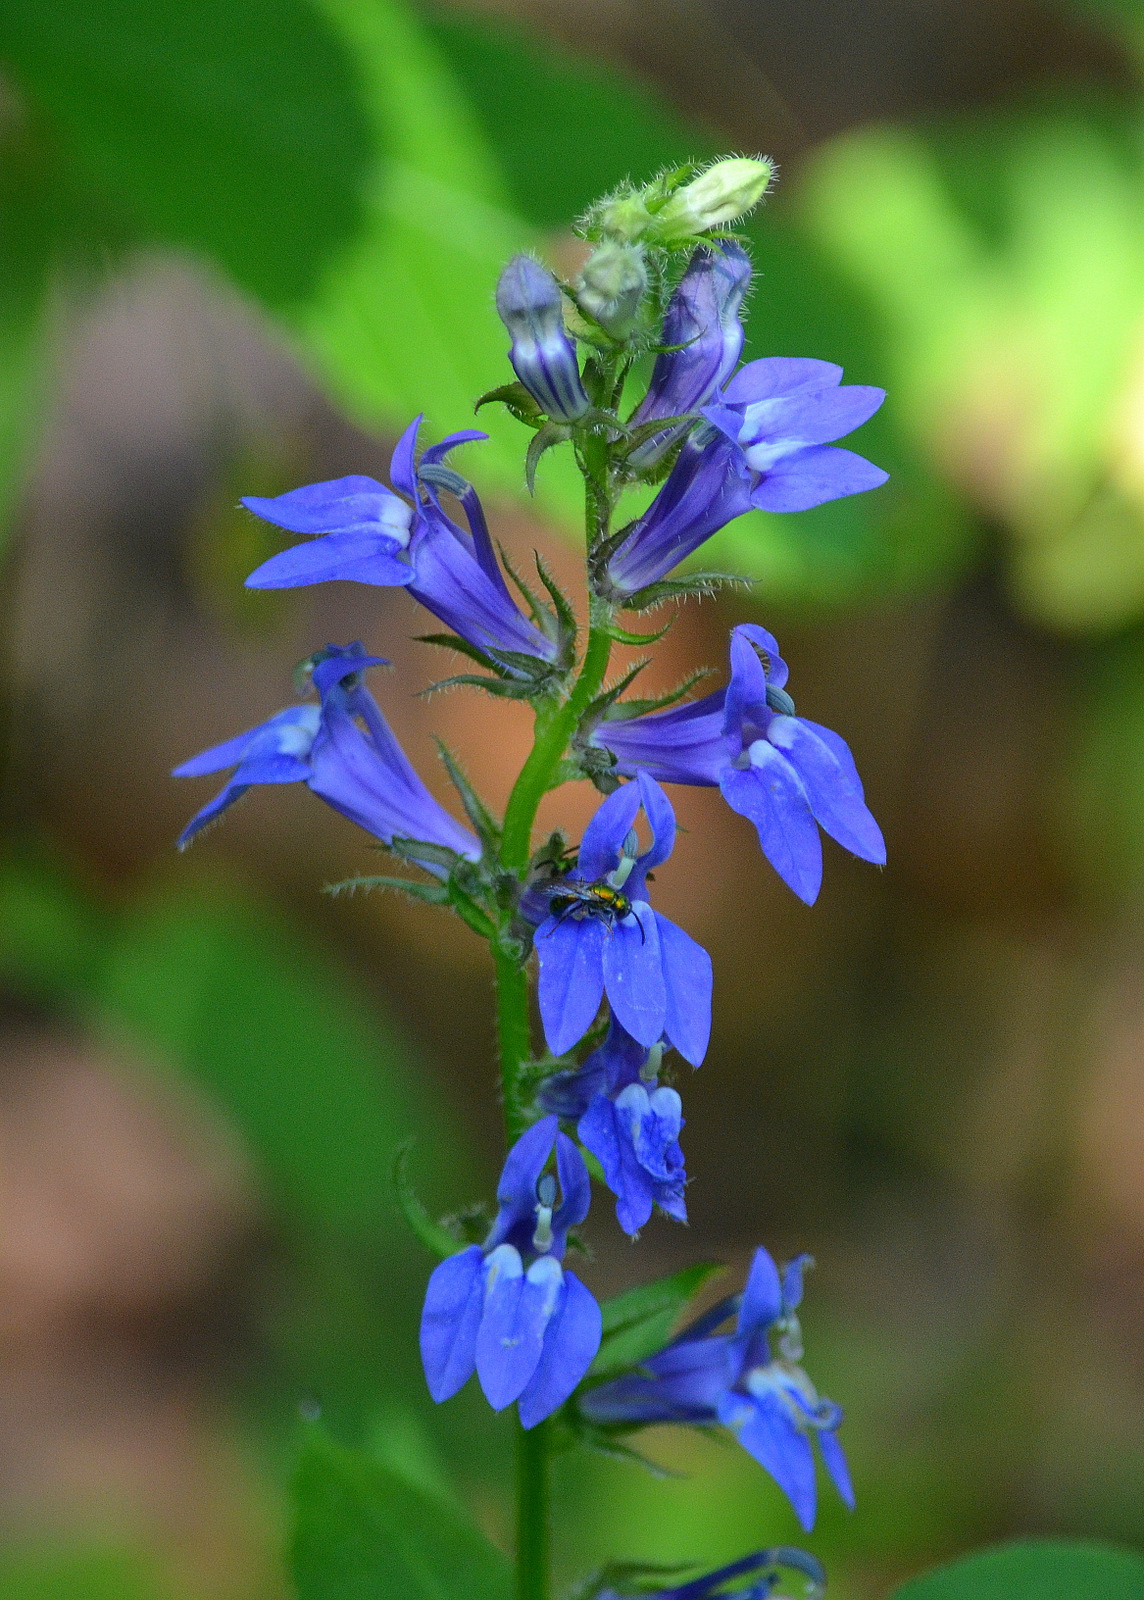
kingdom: Plantae
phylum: Tracheophyta
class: Magnoliopsida
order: Asterales
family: Campanulaceae
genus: Lobelia
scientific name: Lobelia siphilitica
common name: Great lobelia
